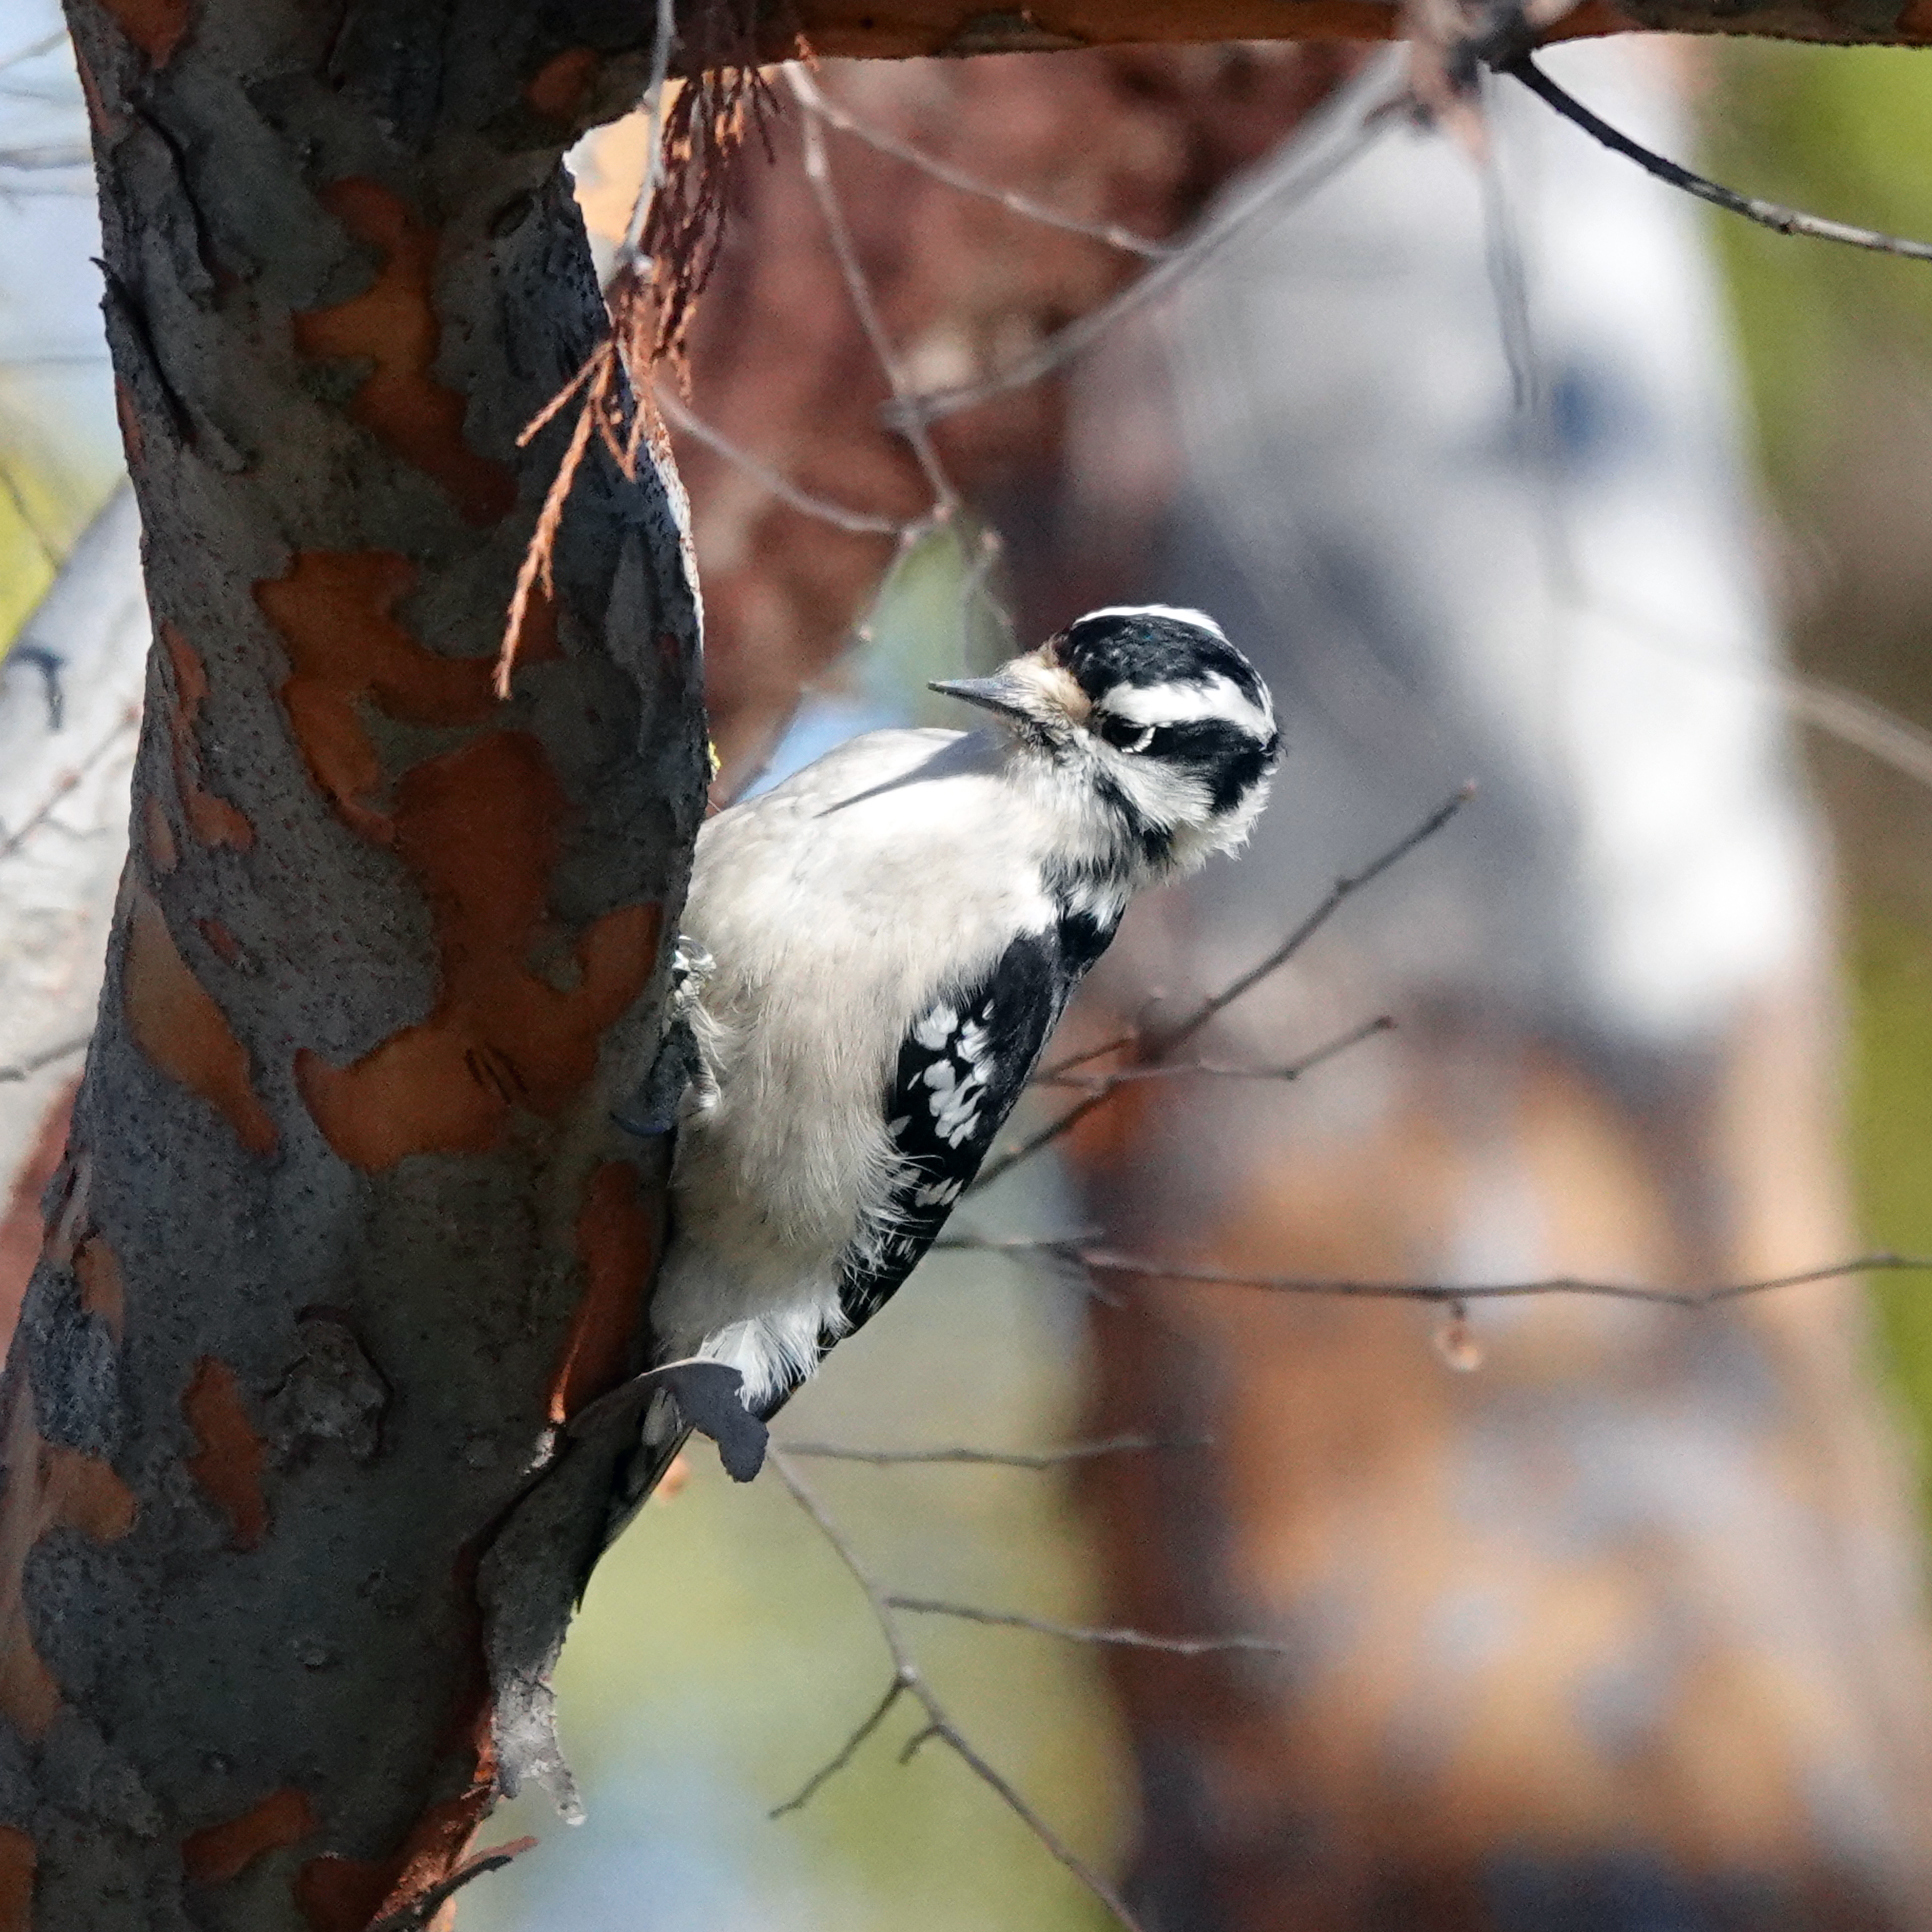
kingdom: Animalia
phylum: Chordata
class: Aves
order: Piciformes
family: Picidae
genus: Dryobates
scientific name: Dryobates pubescens
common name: Downy woodpecker
